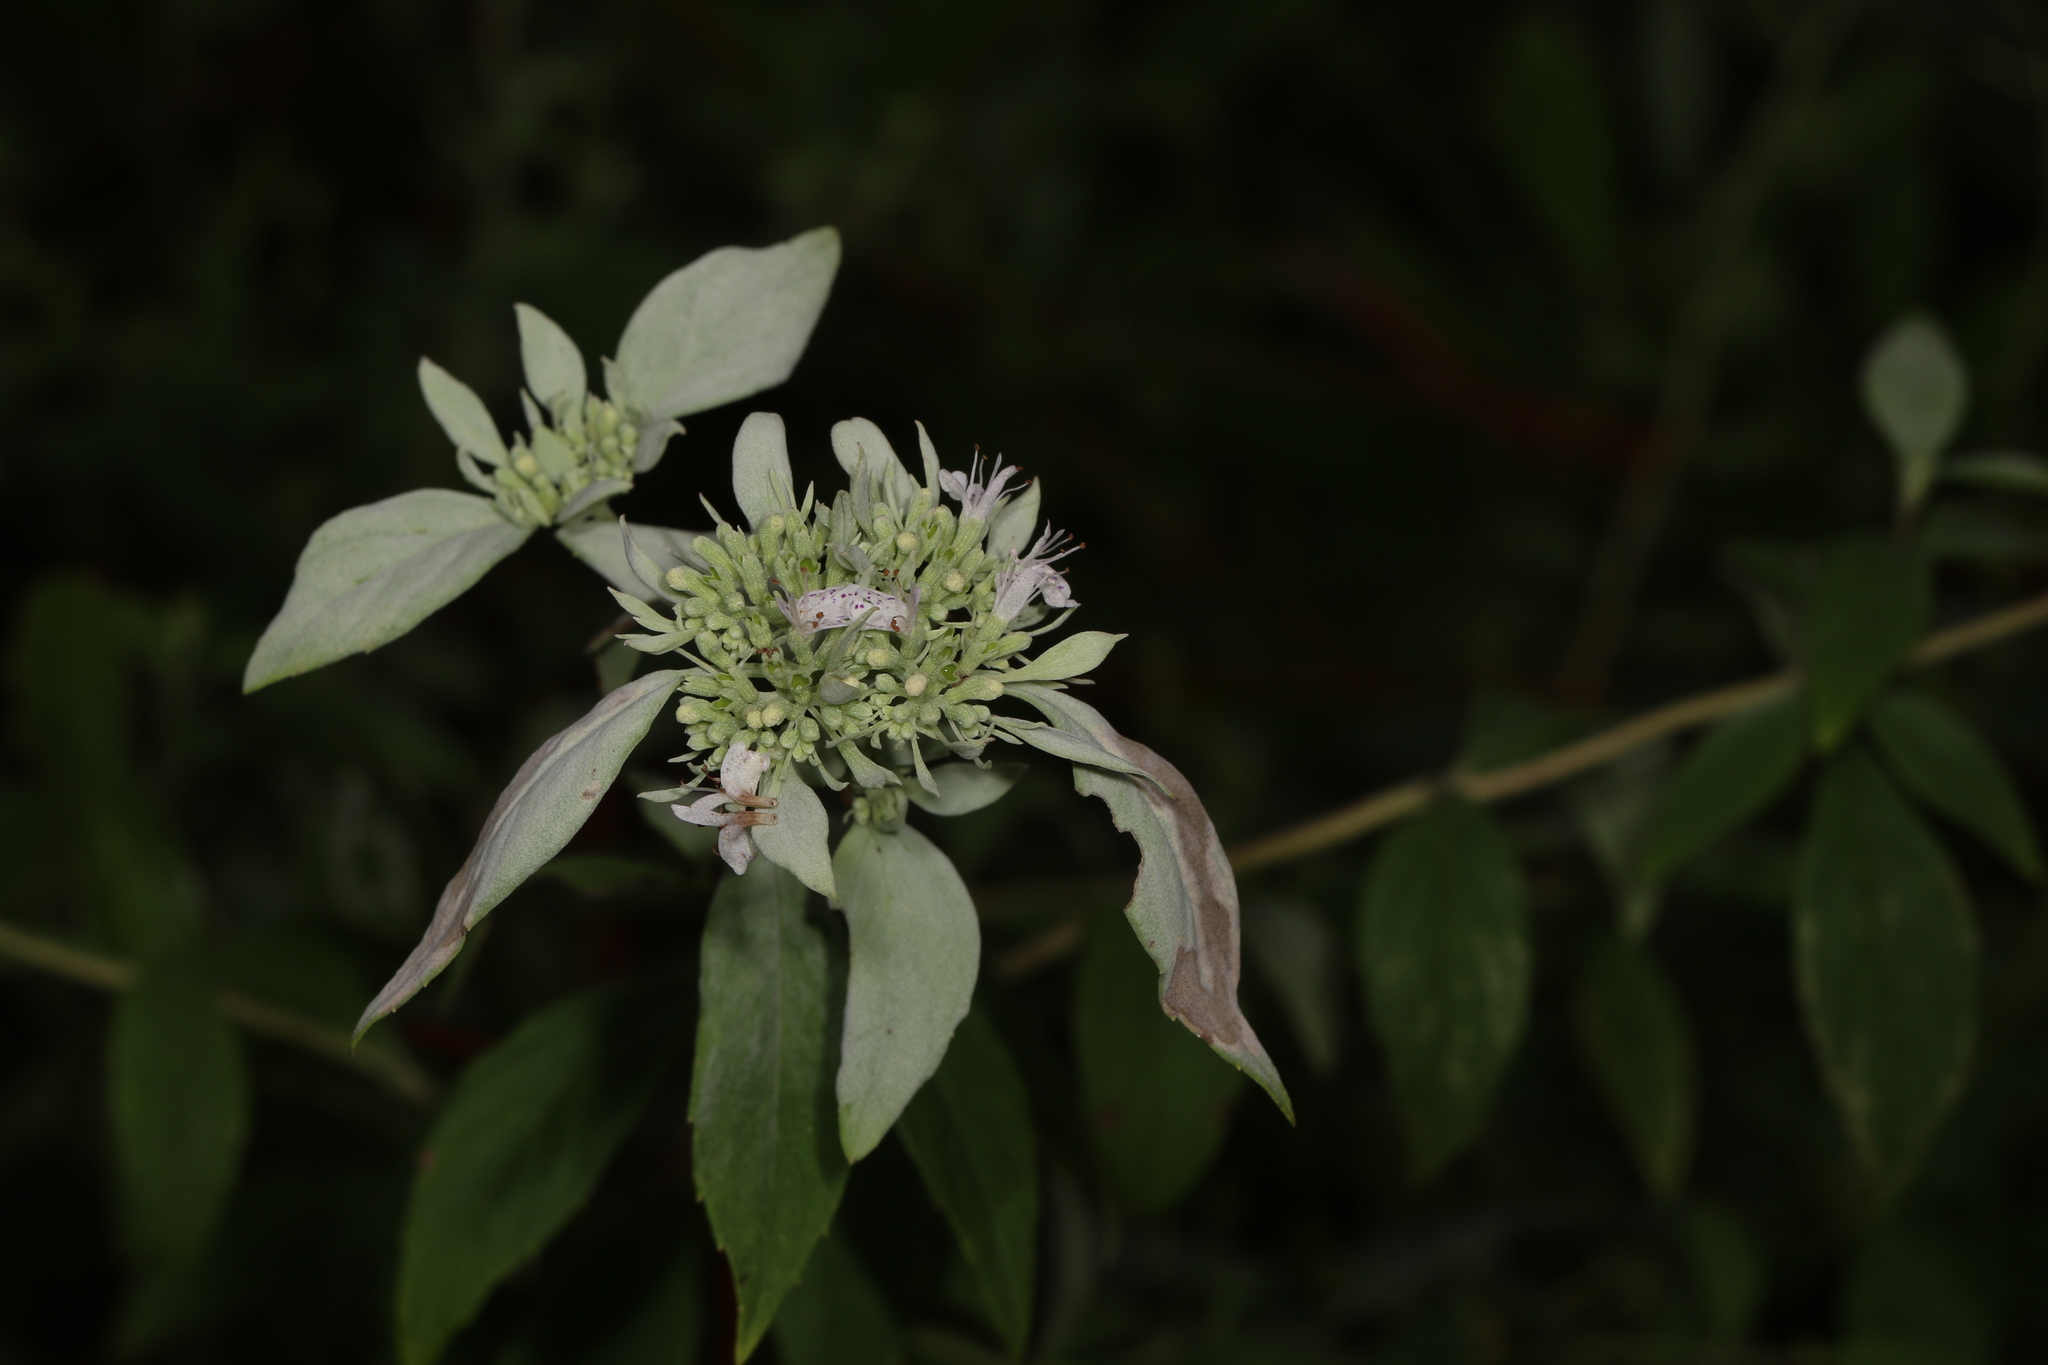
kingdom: Plantae
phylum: Tracheophyta
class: Magnoliopsida
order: Lamiales
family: Lamiaceae
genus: Pycnanthemum
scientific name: Pycnanthemum albescens
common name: White-leaf mountain-mint
